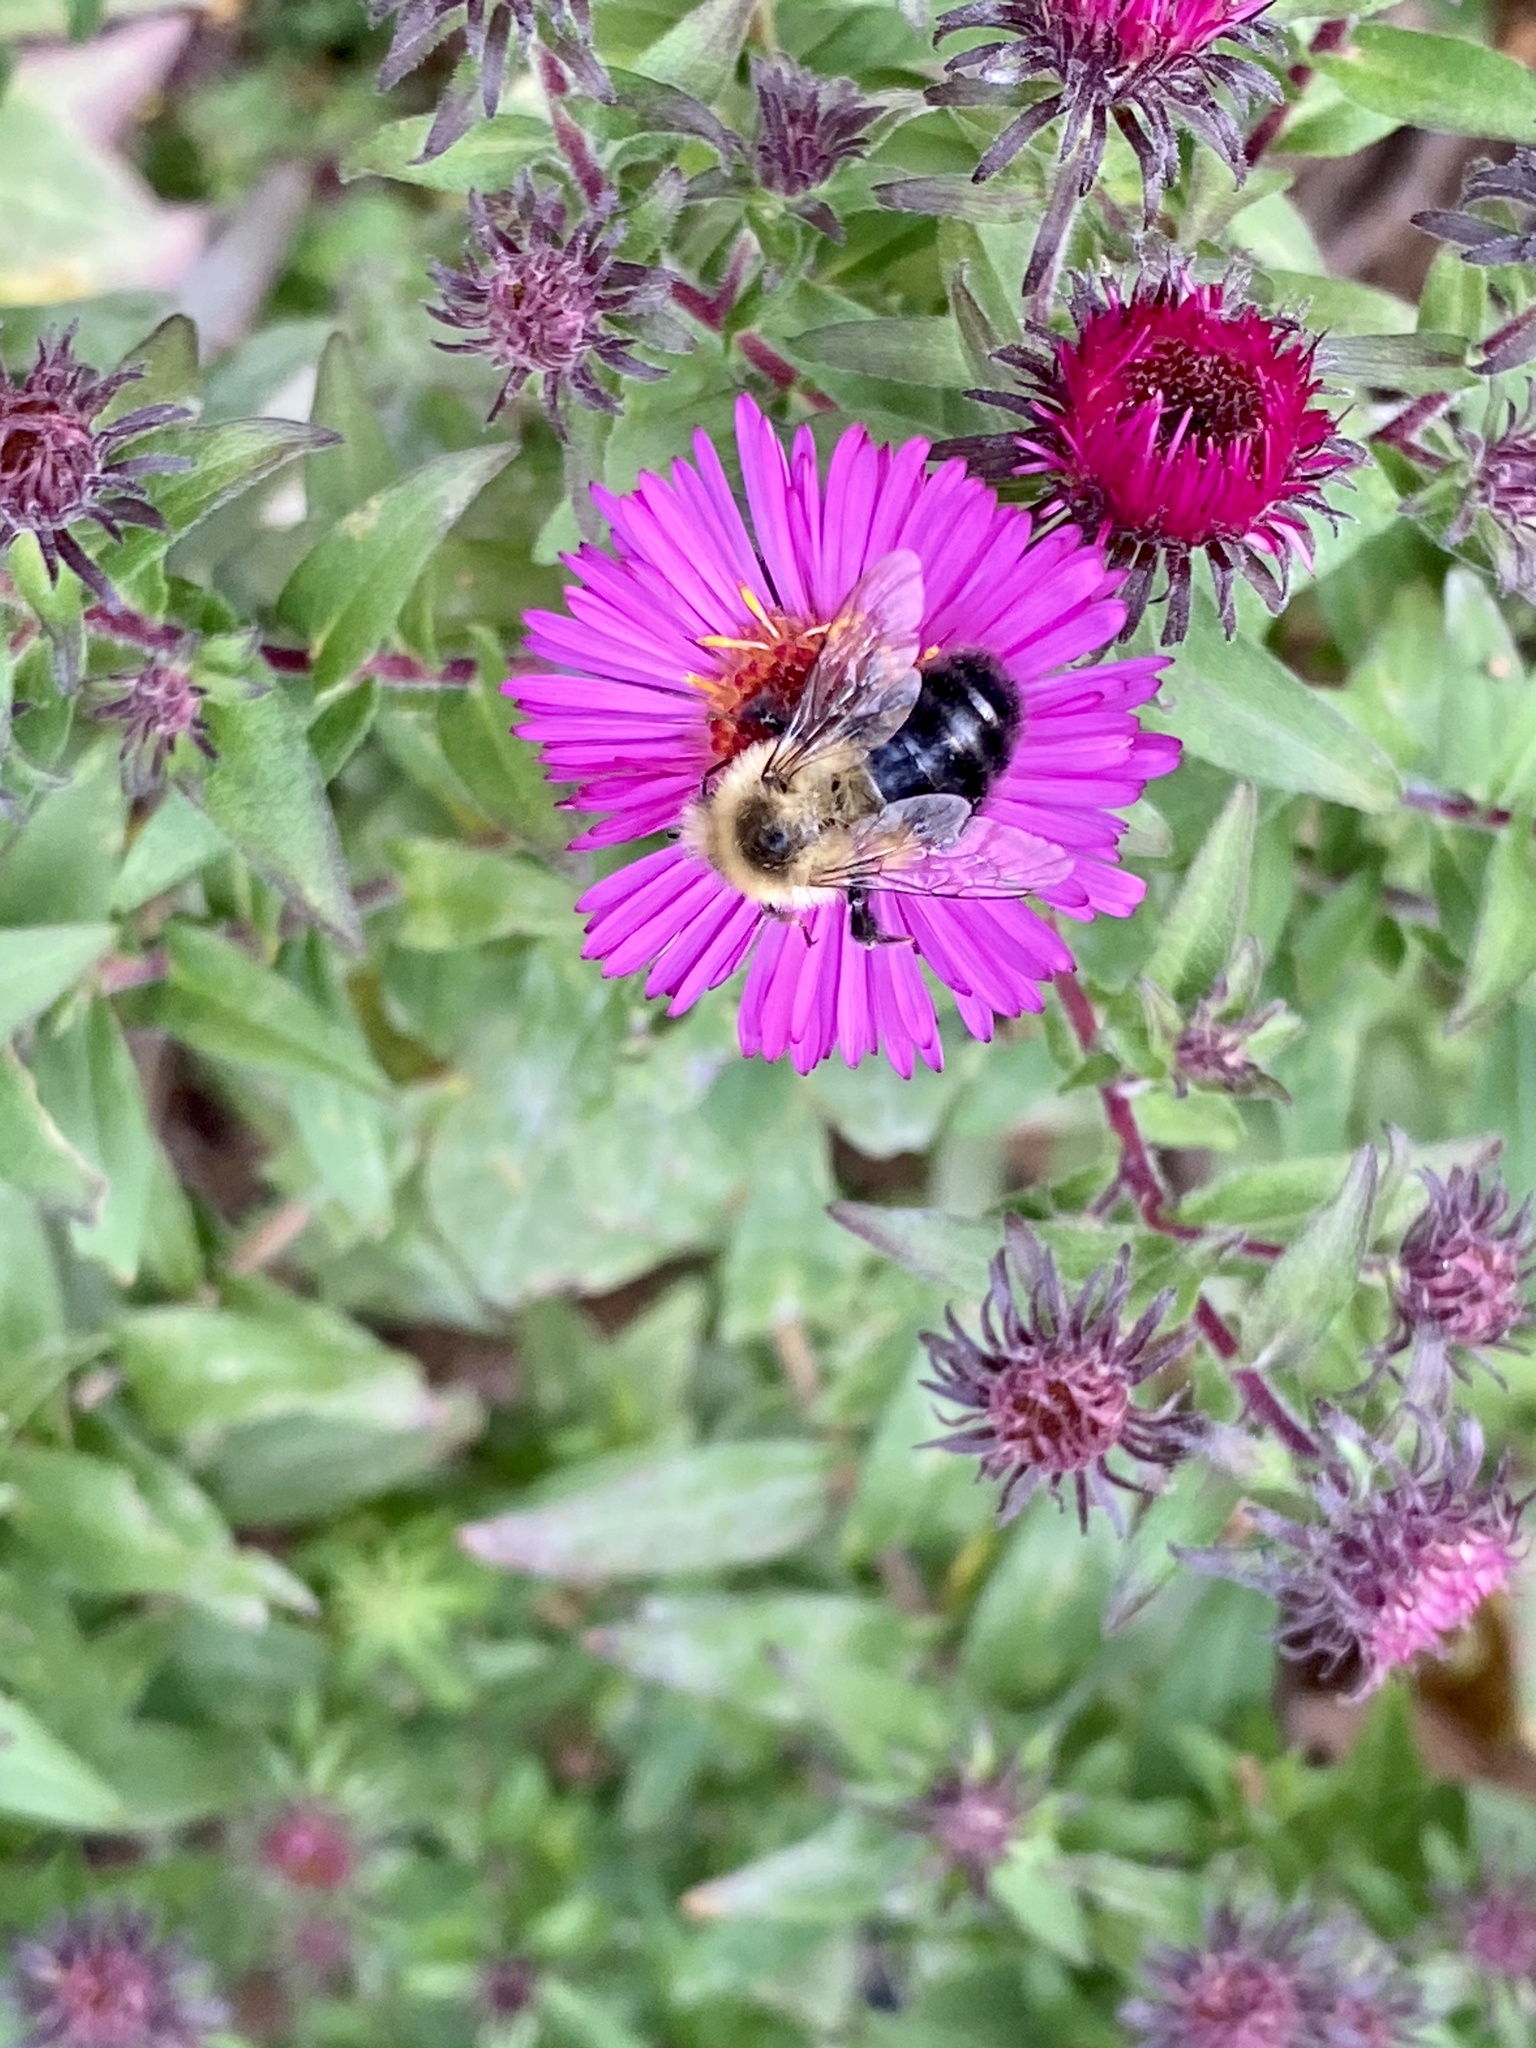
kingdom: Animalia
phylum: Arthropoda
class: Insecta
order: Hymenoptera
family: Apidae
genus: Bombus
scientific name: Bombus impatiens
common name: Common eastern bumble bee
